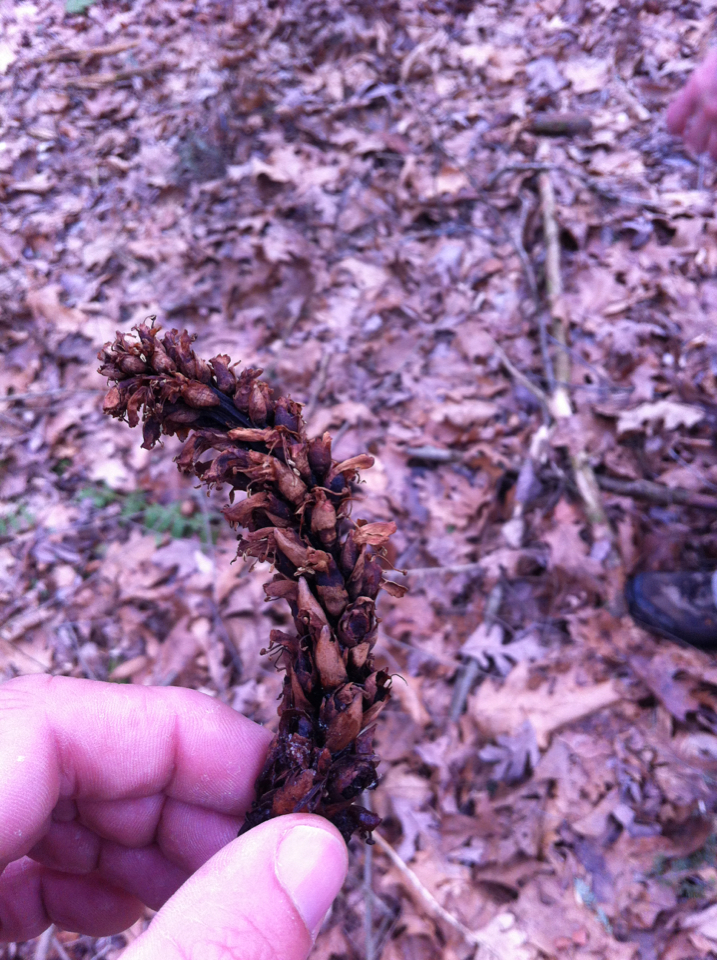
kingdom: Plantae
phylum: Tracheophyta
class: Magnoliopsida
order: Lamiales
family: Orobanchaceae
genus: Conopholis
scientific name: Conopholis americana
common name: American cancer-root
